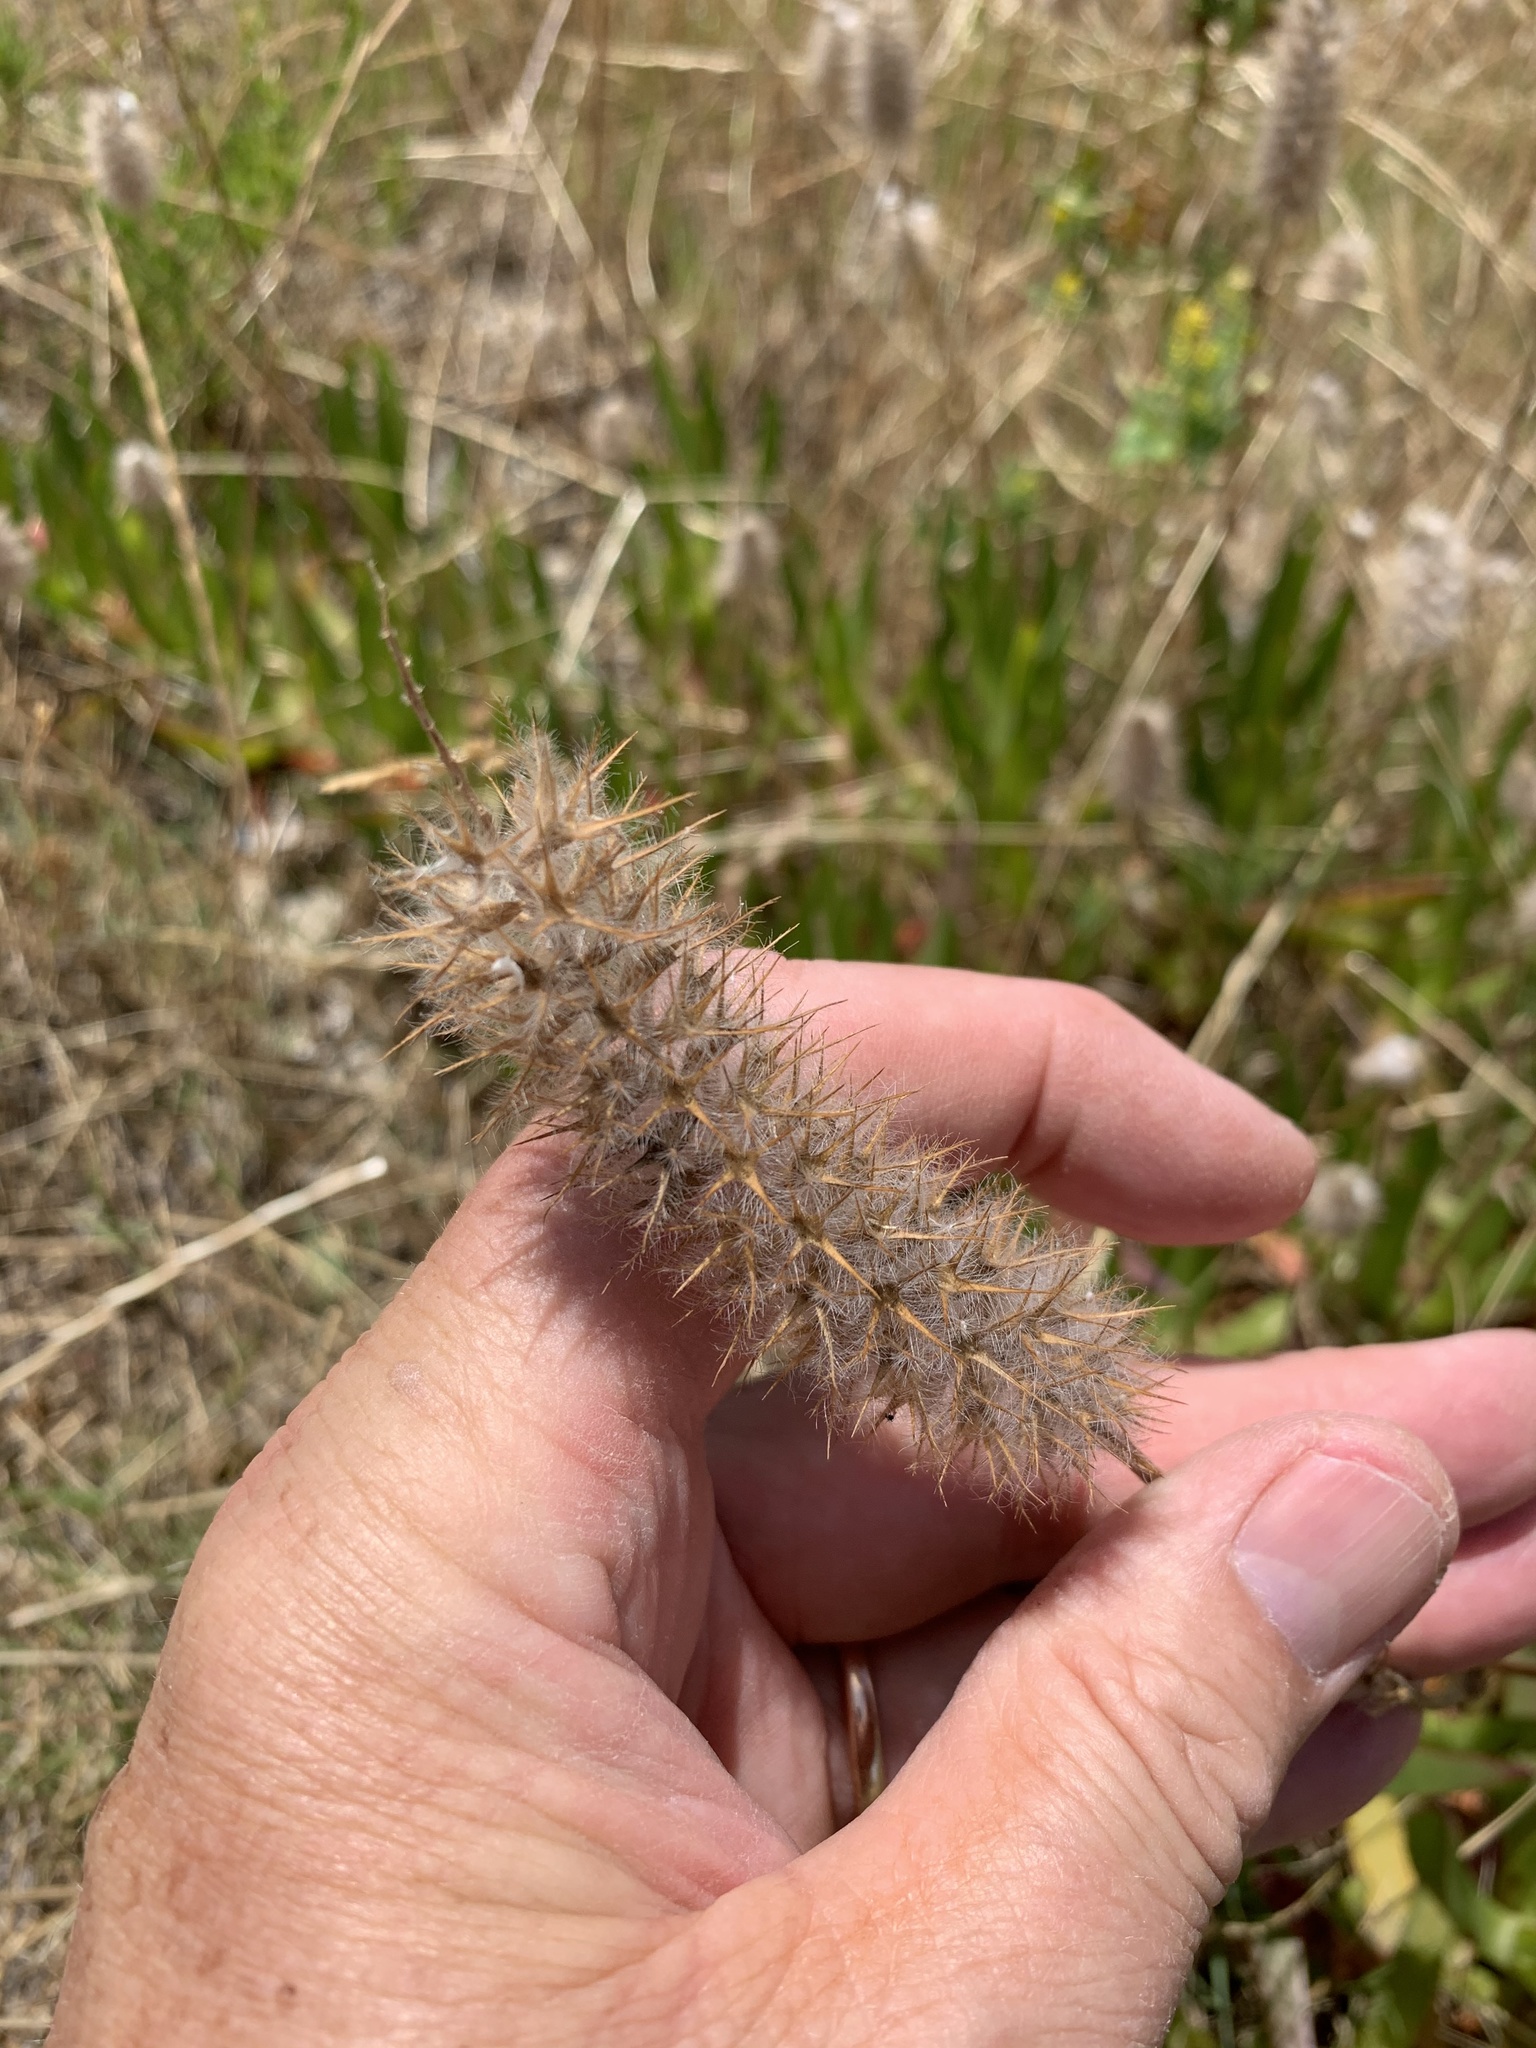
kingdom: Plantae
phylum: Tracheophyta
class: Magnoliopsida
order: Fabales
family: Fabaceae
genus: Trifolium
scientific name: Trifolium angustifolium
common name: Narrow clover
